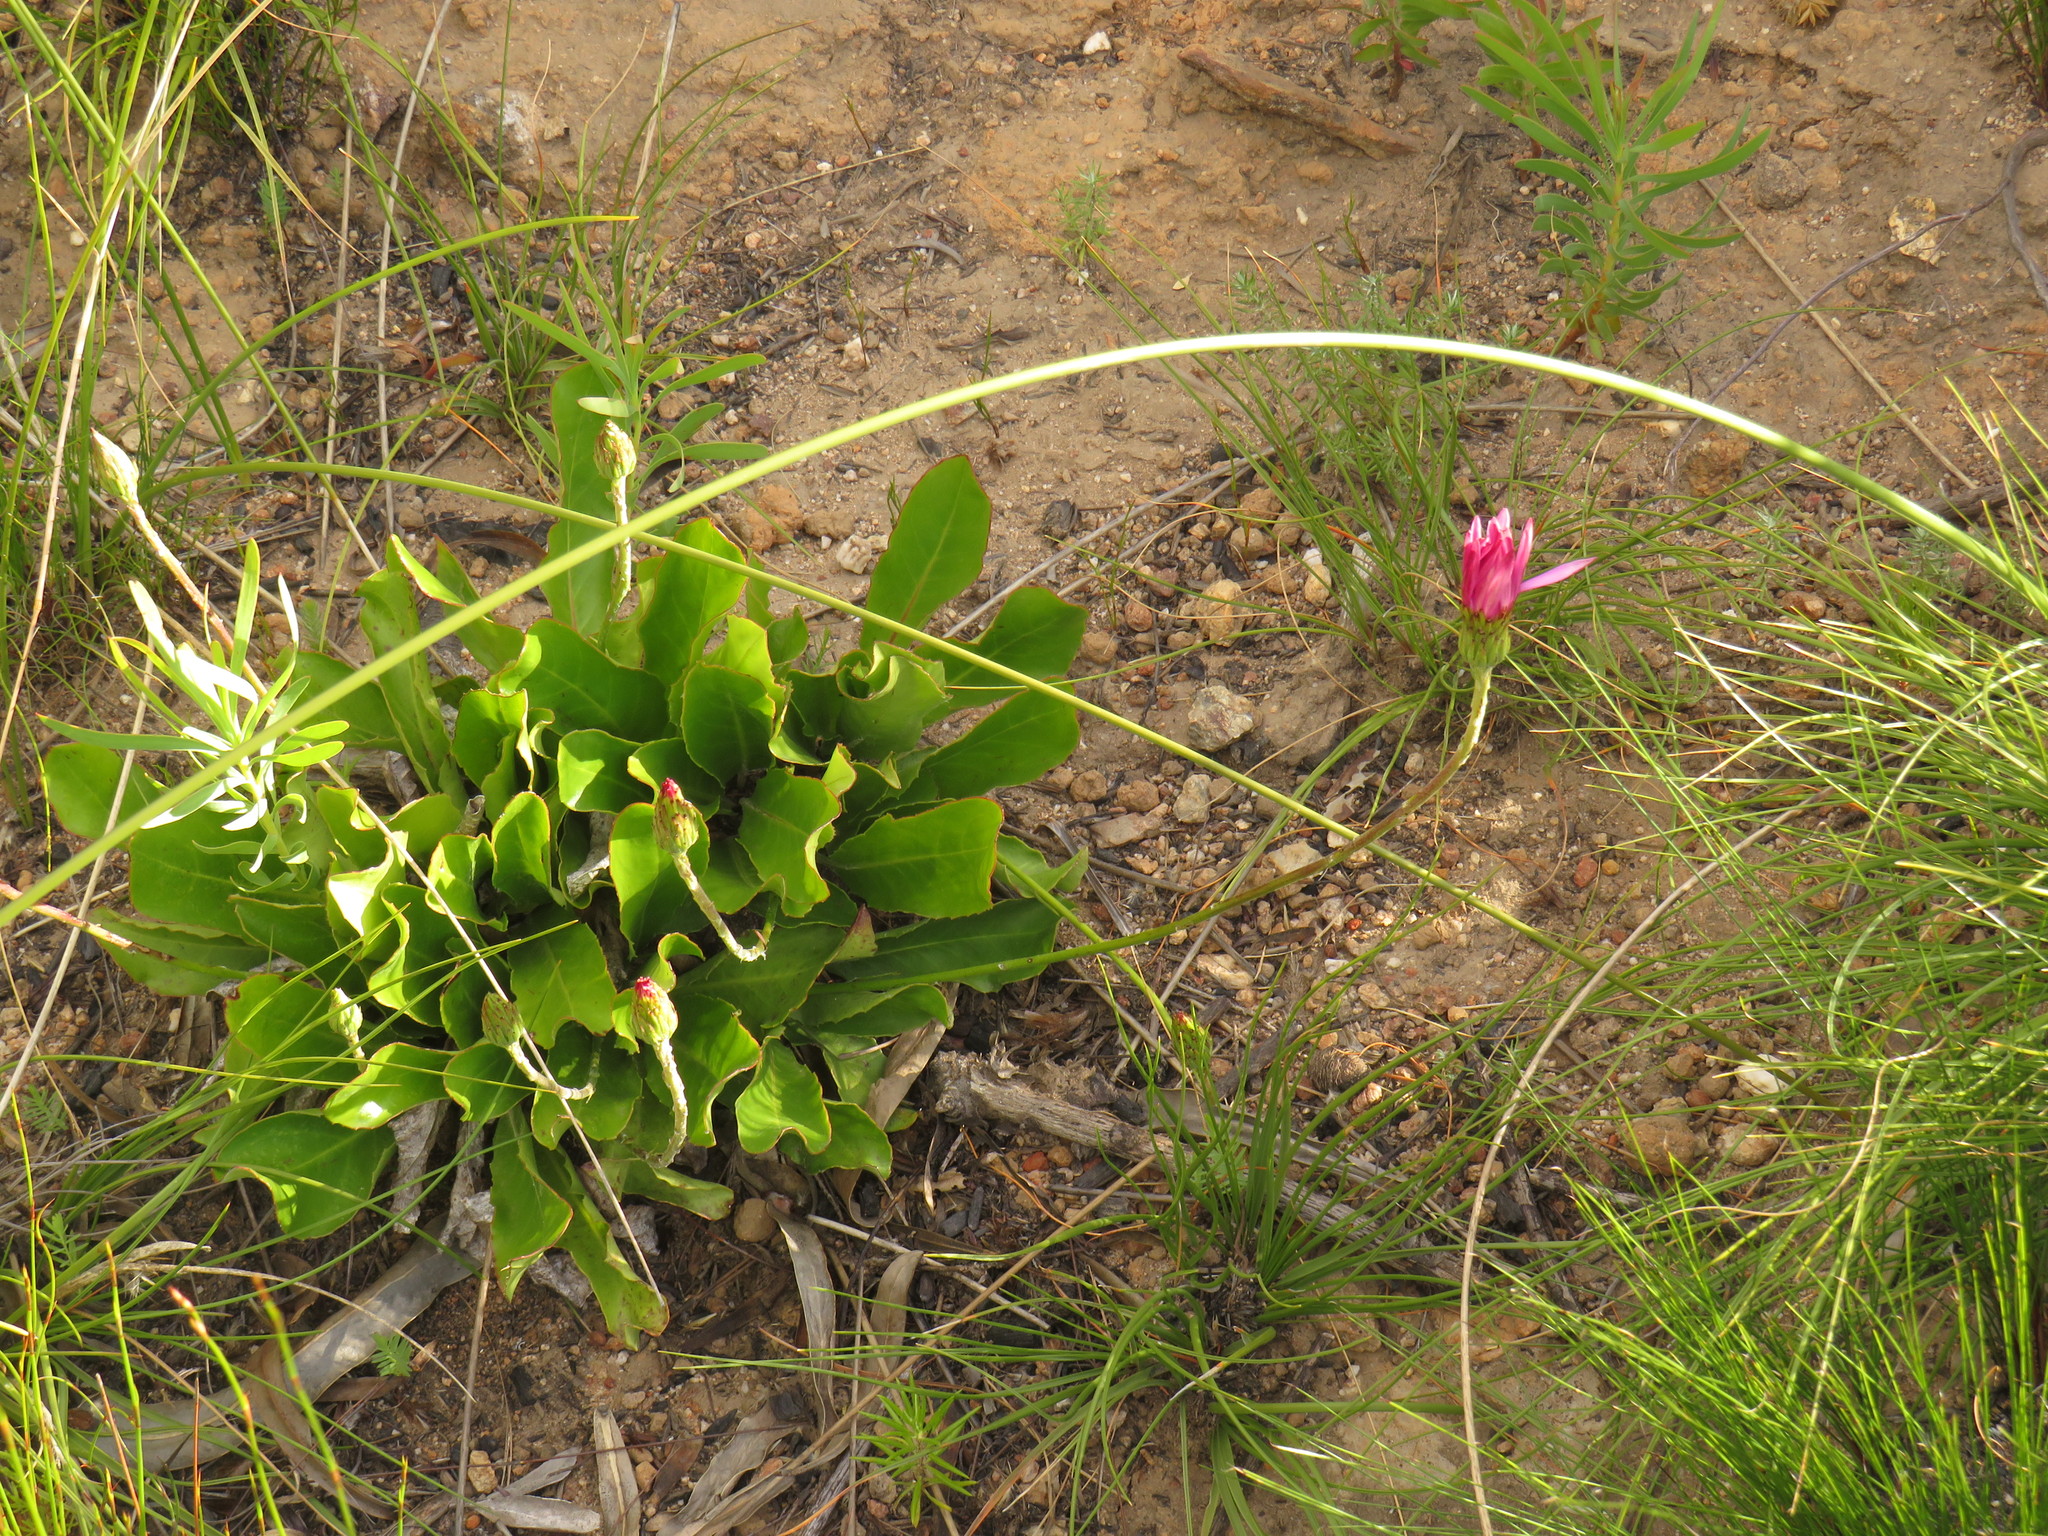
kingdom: Plantae
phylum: Tracheophyta
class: Magnoliopsida
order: Asterales
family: Asteraceae
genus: Gerbera
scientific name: Gerbera crocea
